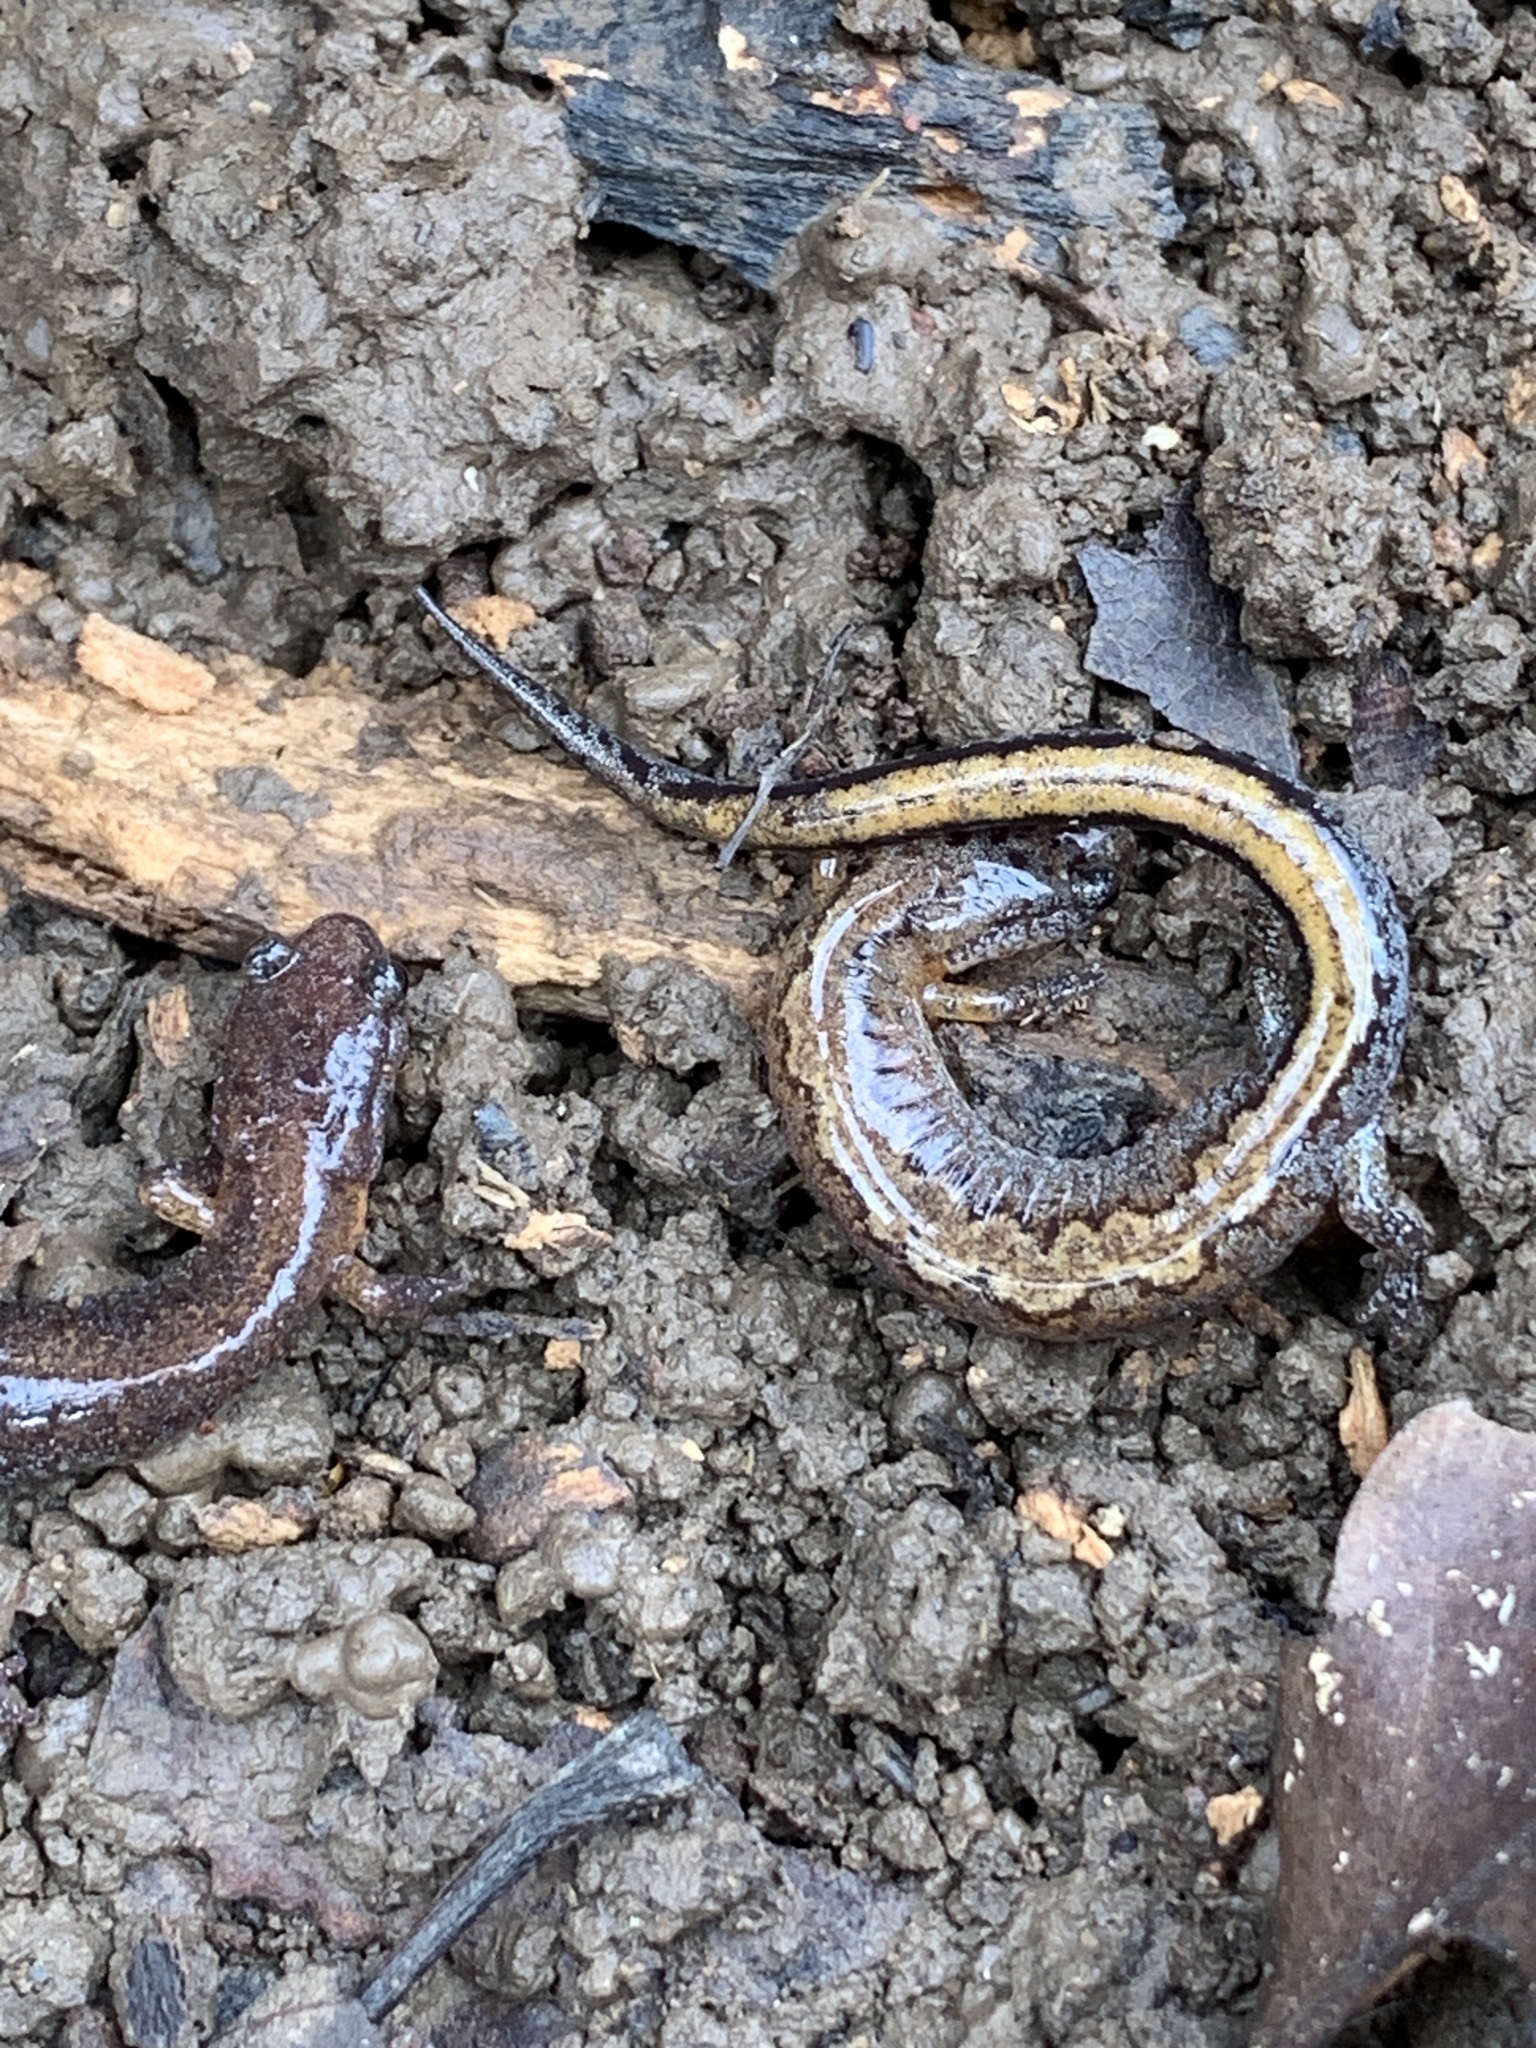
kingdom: Animalia
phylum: Chordata
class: Amphibia
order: Caudata
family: Plethodontidae
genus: Plethodon
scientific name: Plethodon dorsalis
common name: Northern zigzag salamander
